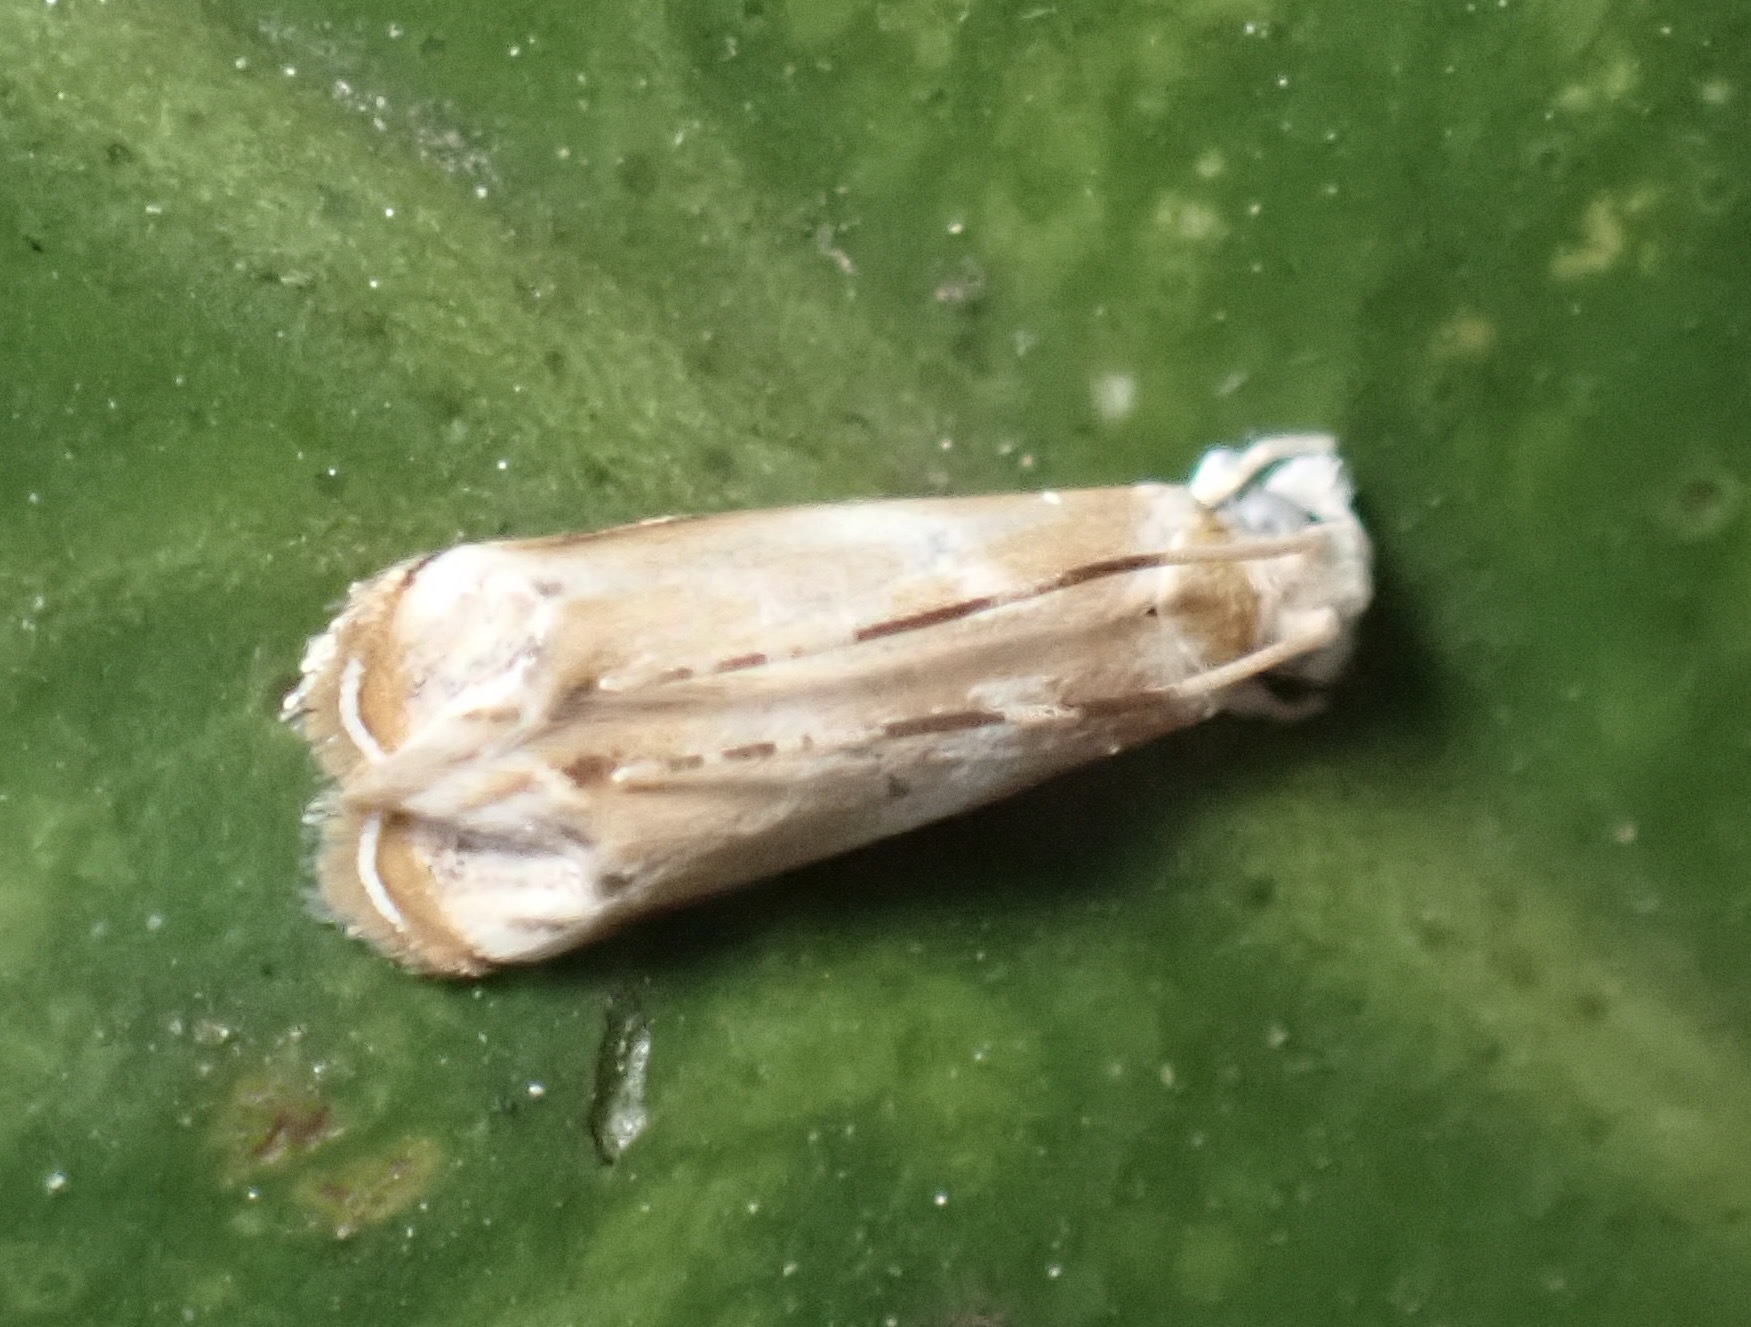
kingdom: Animalia
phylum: Arthropoda
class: Insecta
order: Lepidoptera
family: Dryadaulidae
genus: Dryadaula
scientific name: Dryadaula terpsichorella
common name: Dancing moth
